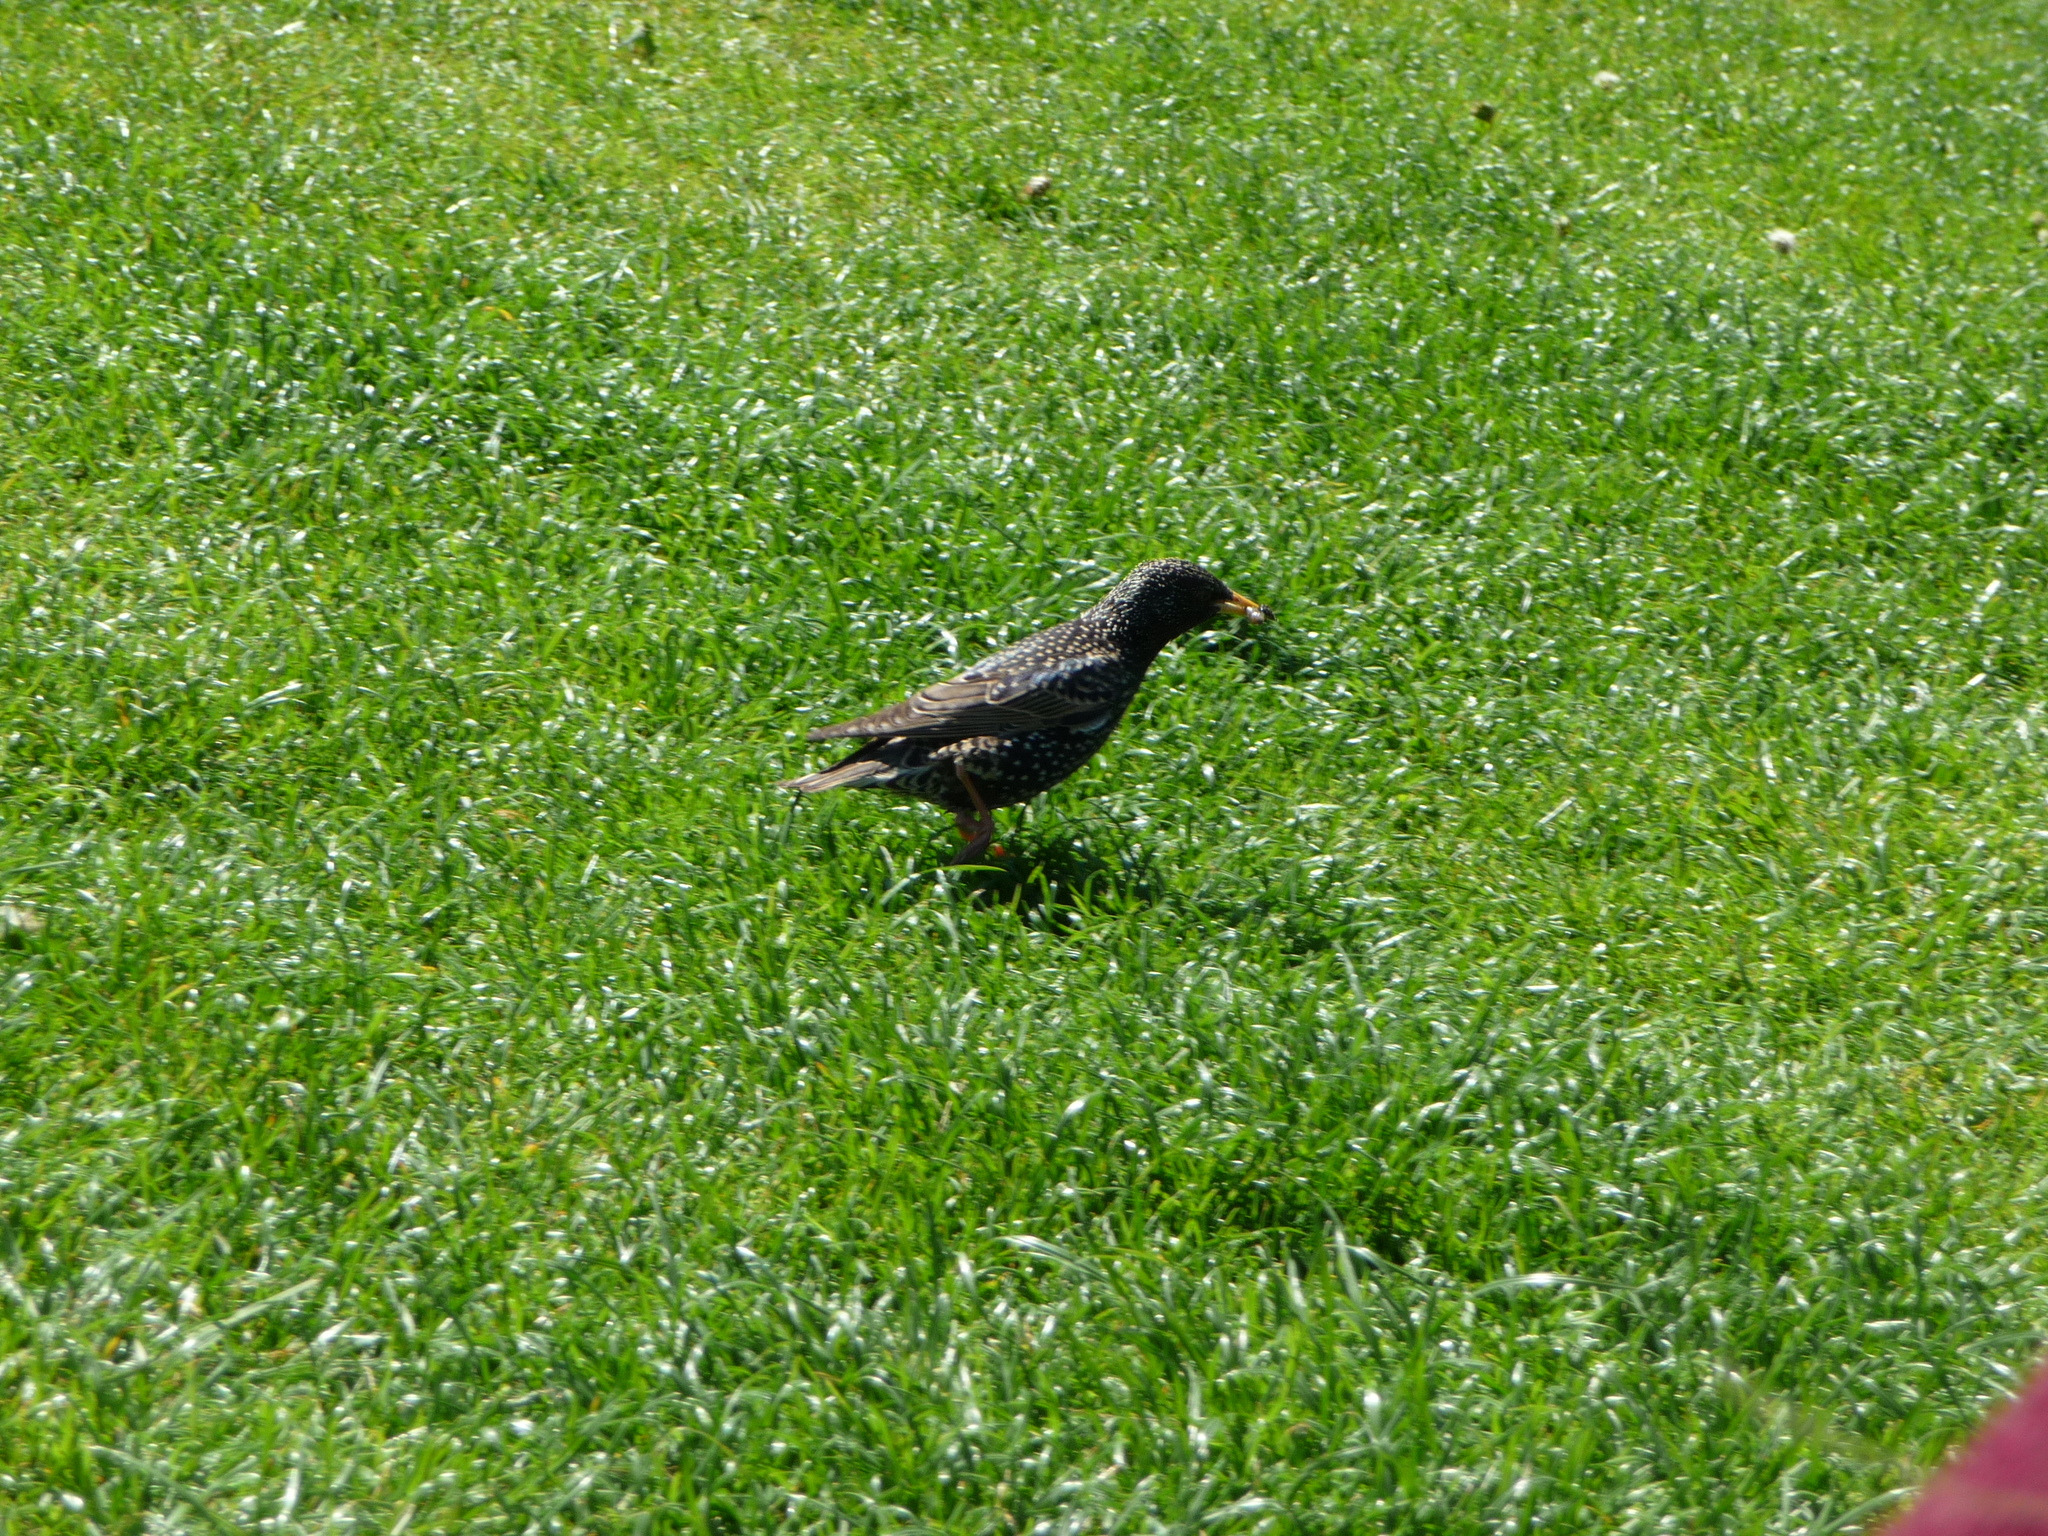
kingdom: Animalia
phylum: Chordata
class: Aves
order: Passeriformes
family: Sturnidae
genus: Sturnus
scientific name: Sturnus vulgaris
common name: Common starling
